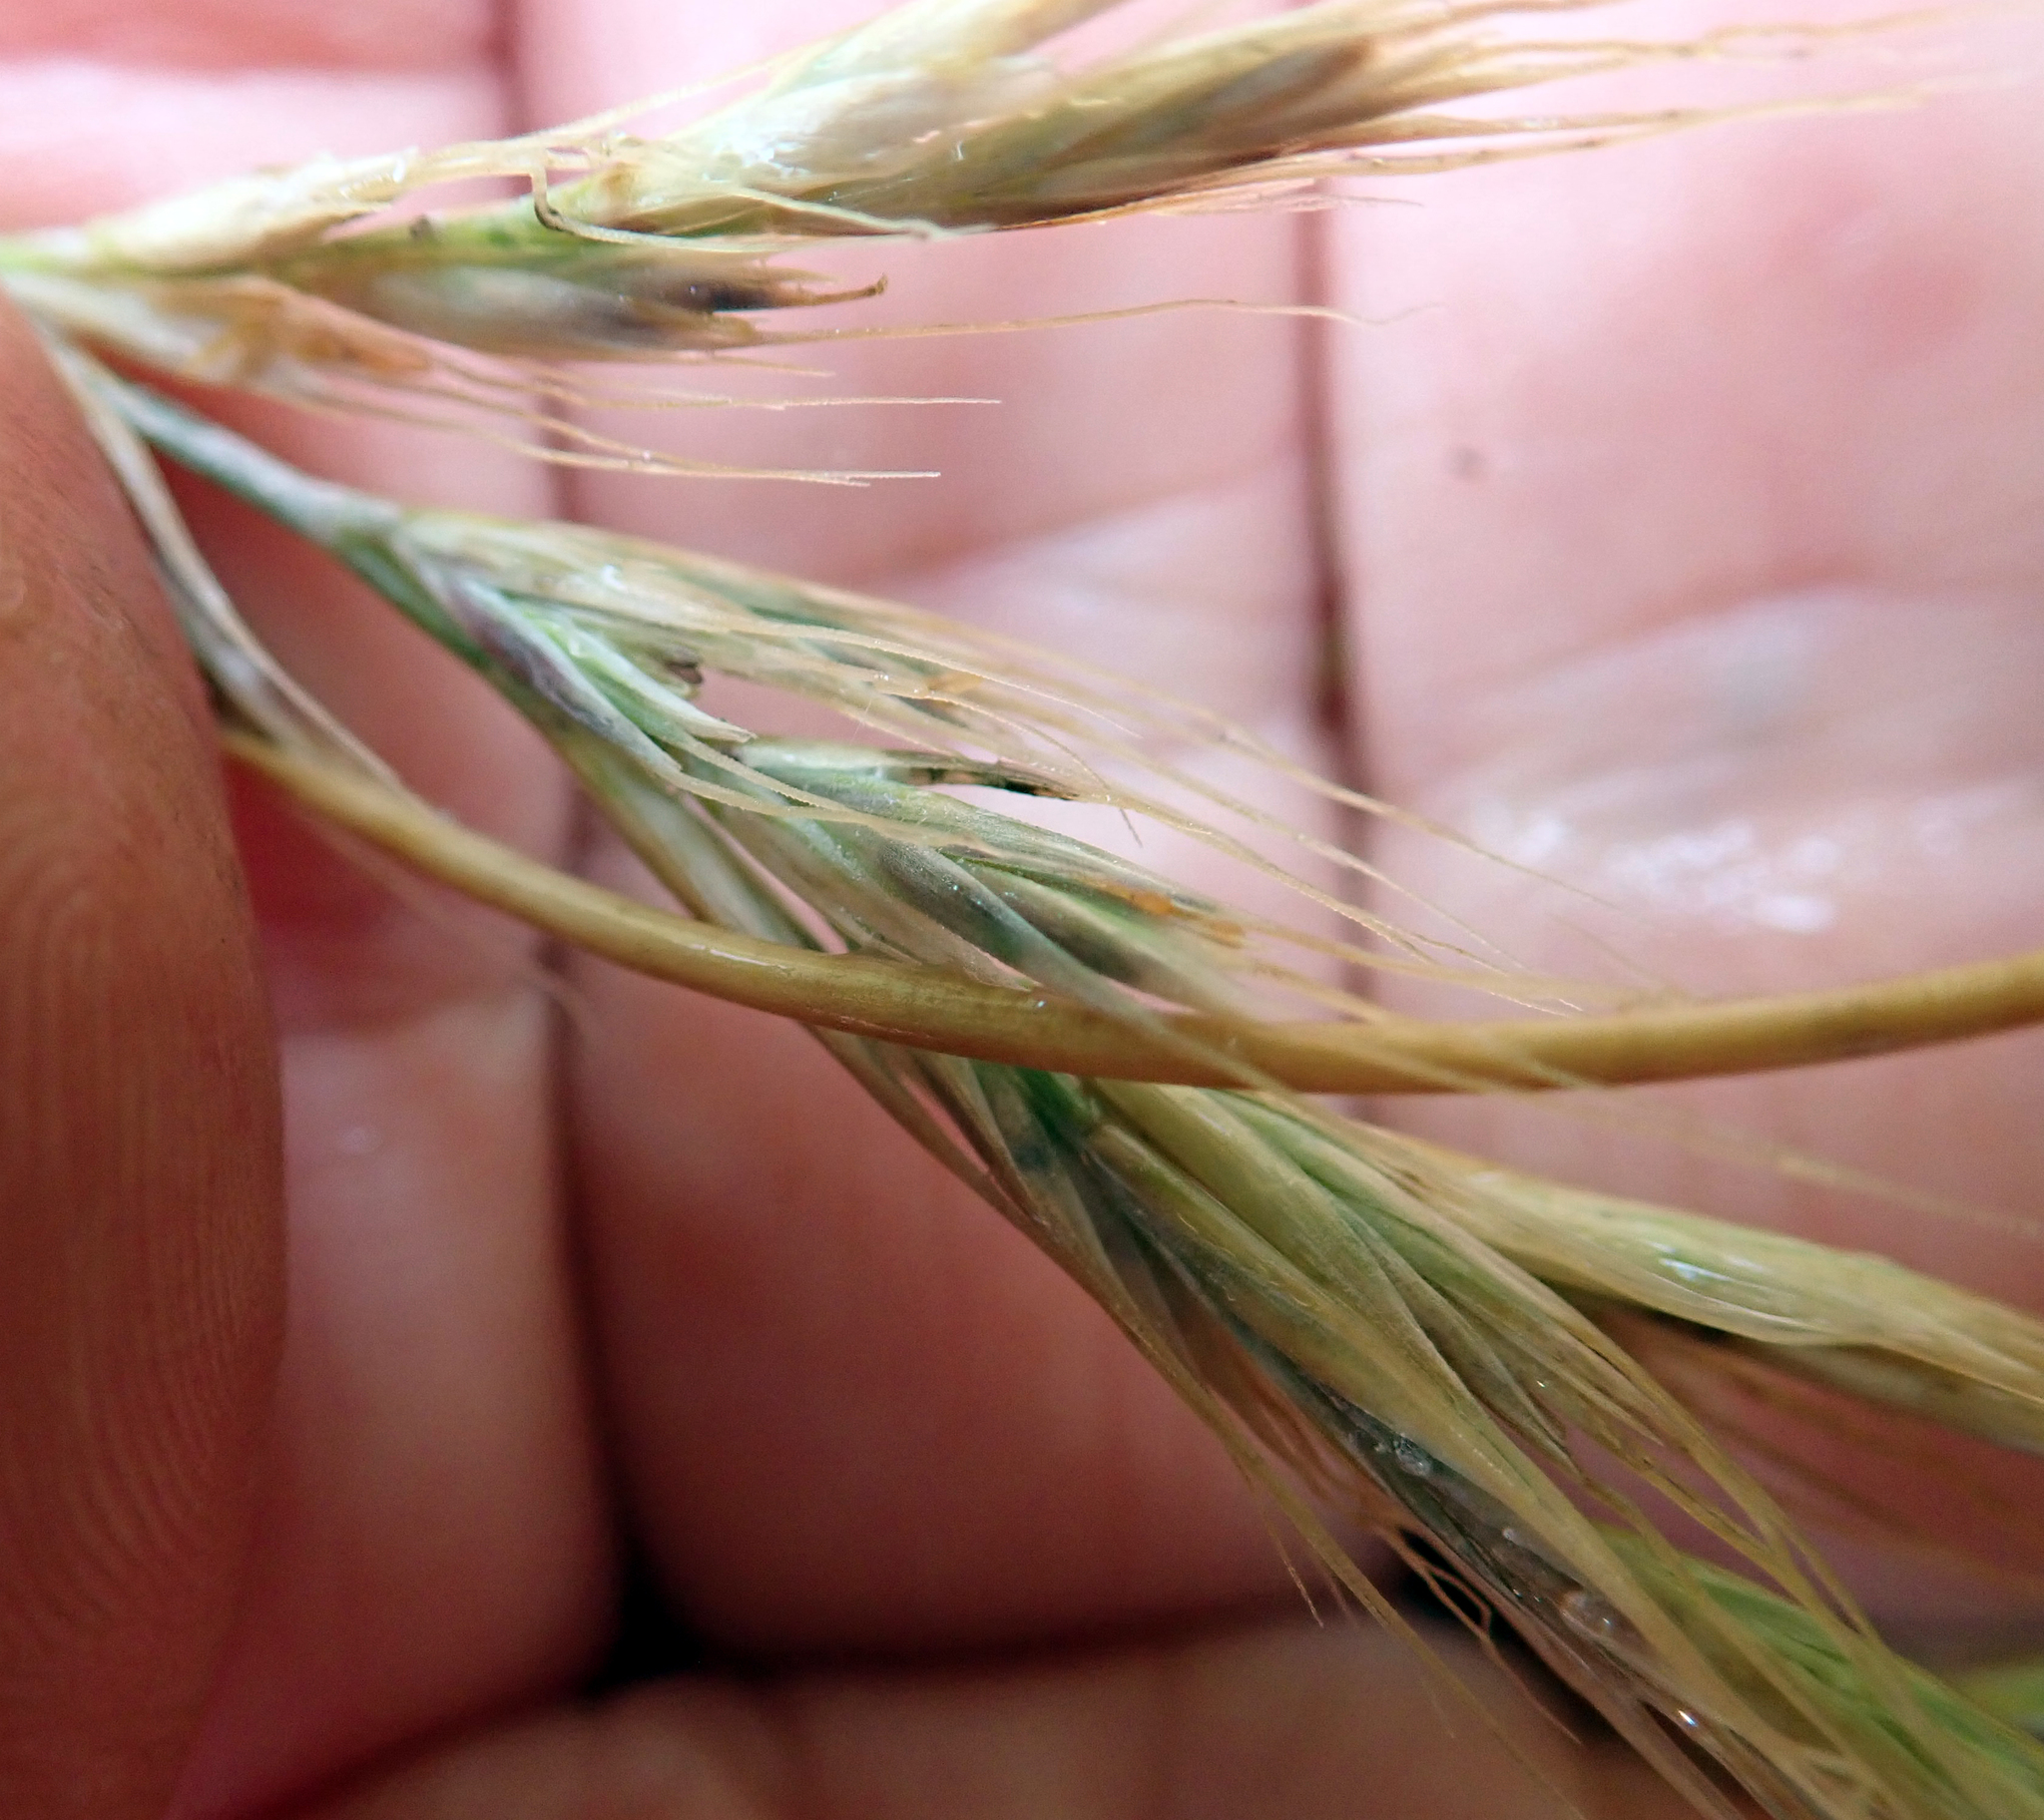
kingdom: Plantae
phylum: Tracheophyta
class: Liliopsida
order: Poales
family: Poaceae
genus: Festuca
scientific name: Festuca coxii
